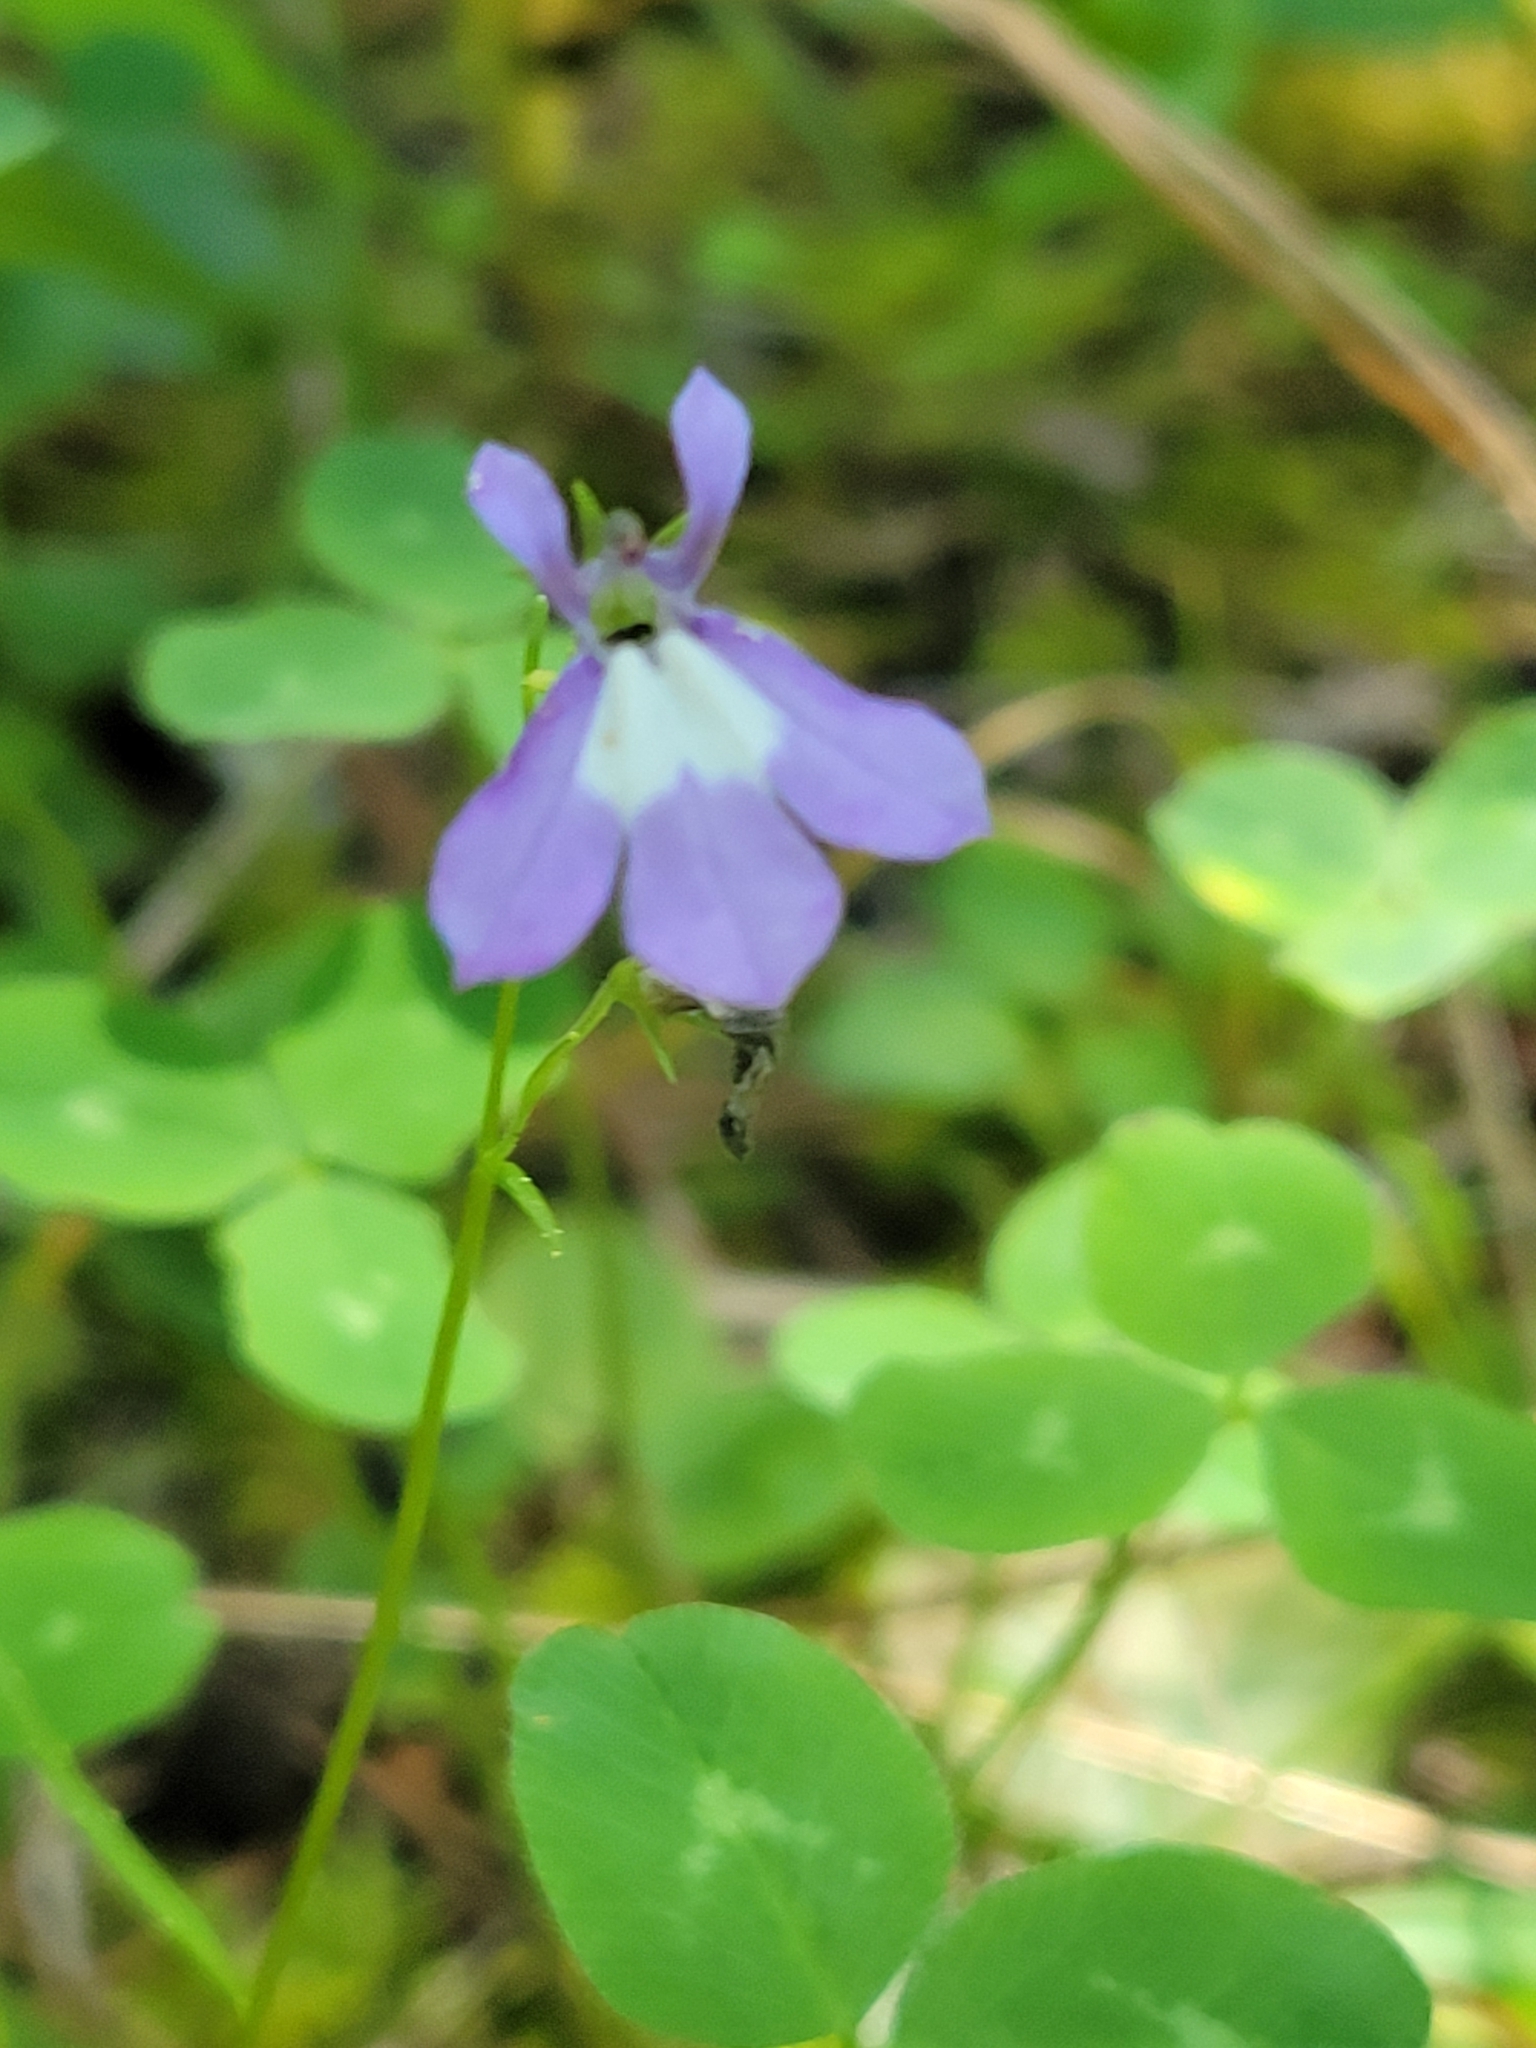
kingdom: Plantae
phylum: Tracheophyta
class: Magnoliopsida
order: Asterales
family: Campanulaceae
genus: Lobelia
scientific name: Lobelia kalmii
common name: Kalm's lobelia
